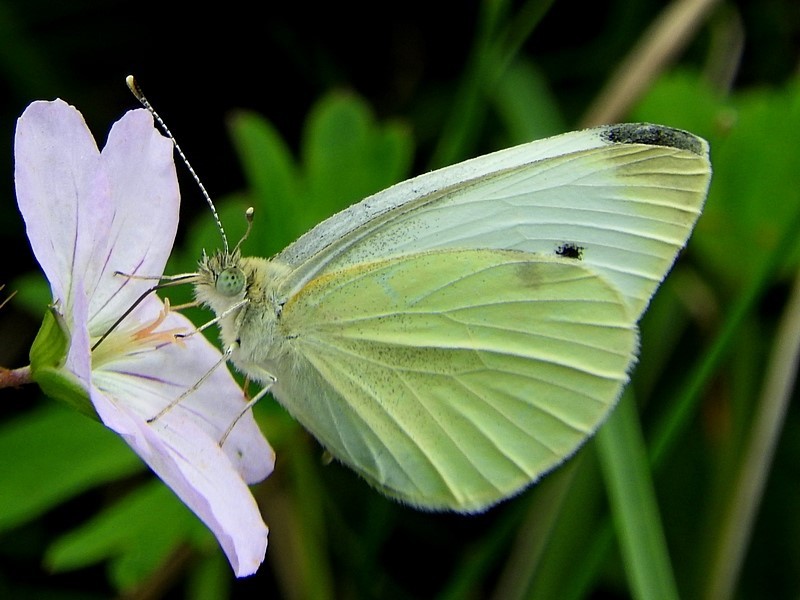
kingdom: Animalia
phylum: Arthropoda
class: Insecta
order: Lepidoptera
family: Pieridae
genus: Pieris
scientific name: Pieris rapae
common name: Small white
